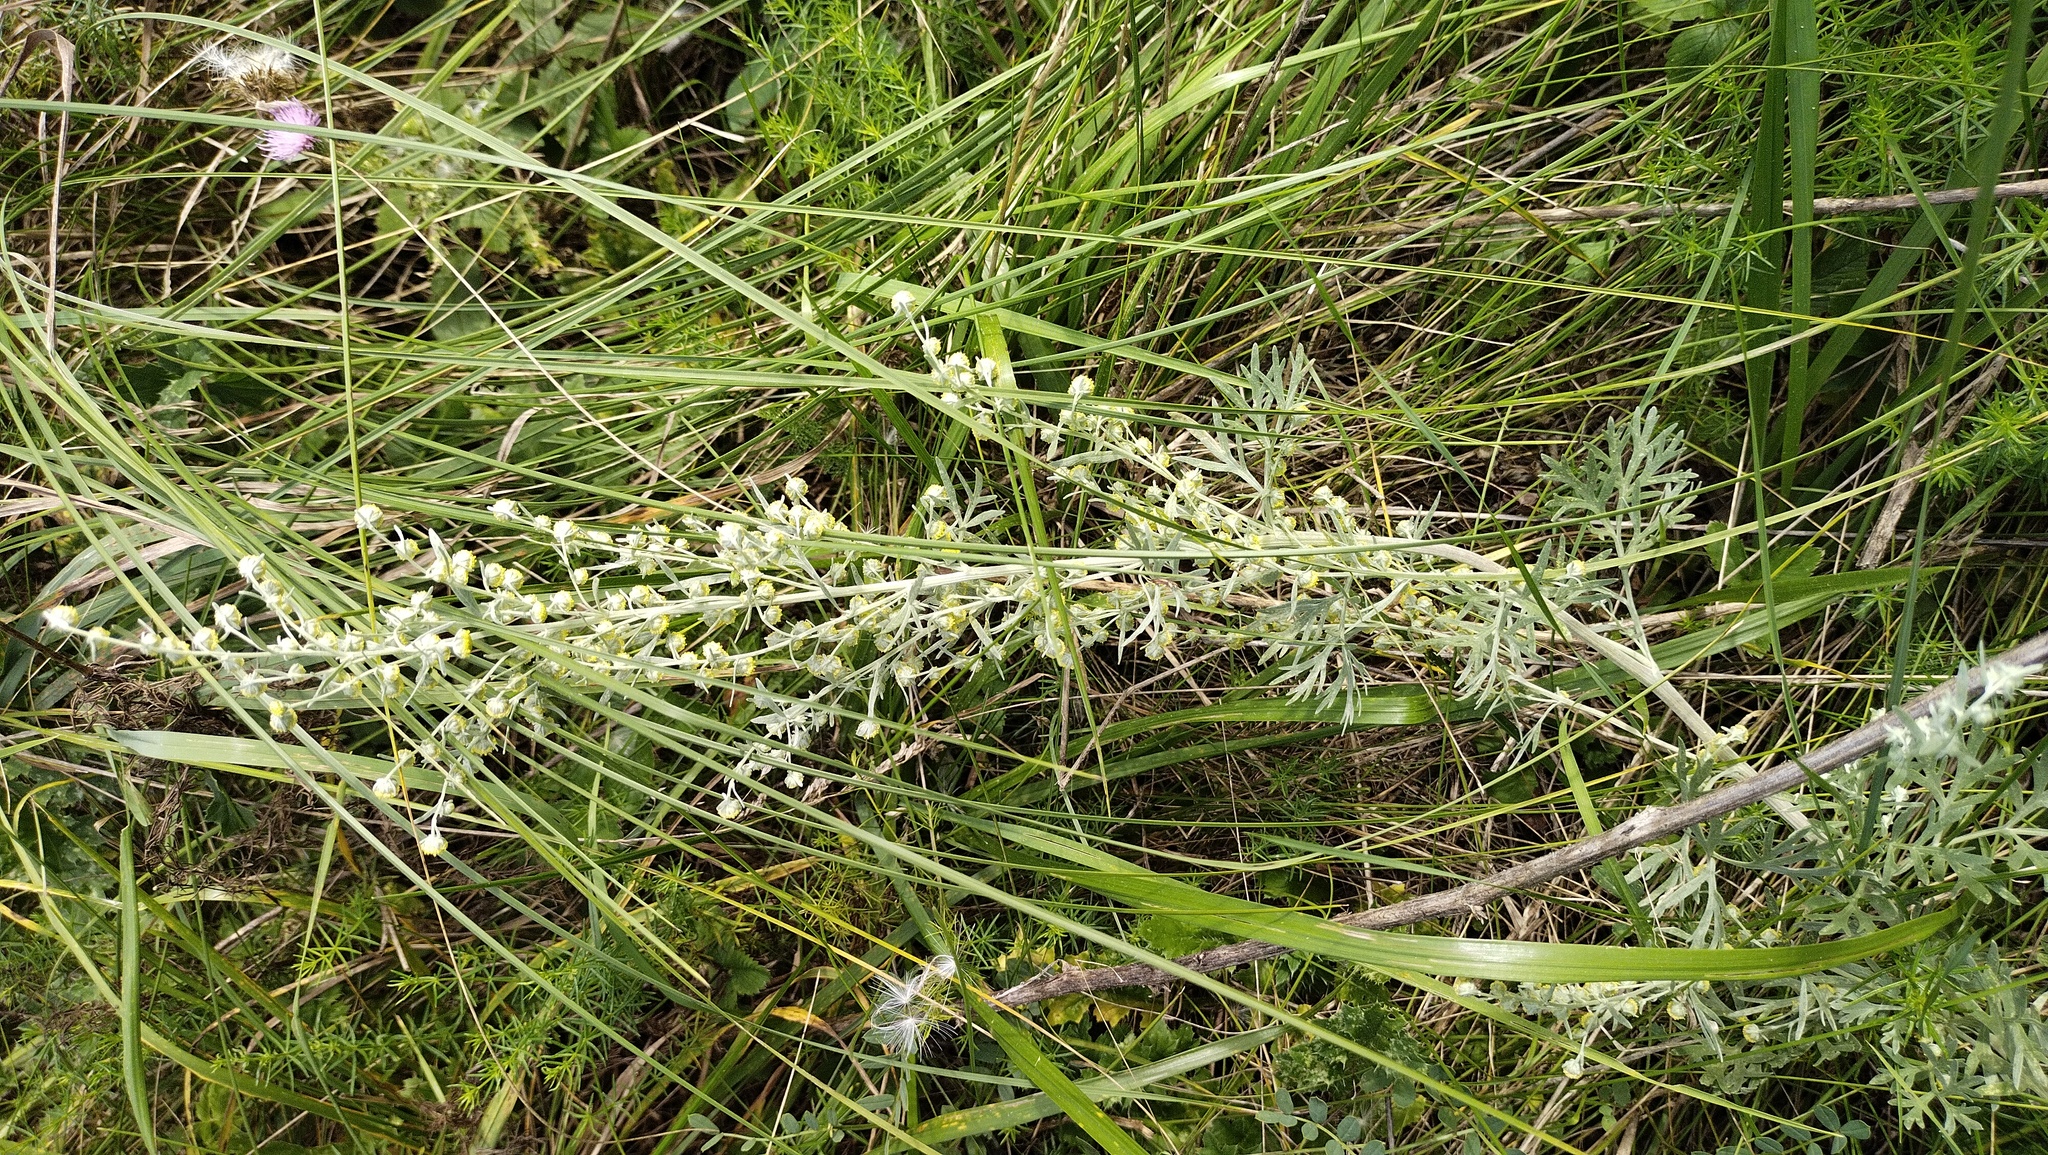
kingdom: Plantae
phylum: Tracheophyta
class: Magnoliopsida
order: Asterales
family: Asteraceae
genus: Artemisia
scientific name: Artemisia absinthium
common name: Wormwood
